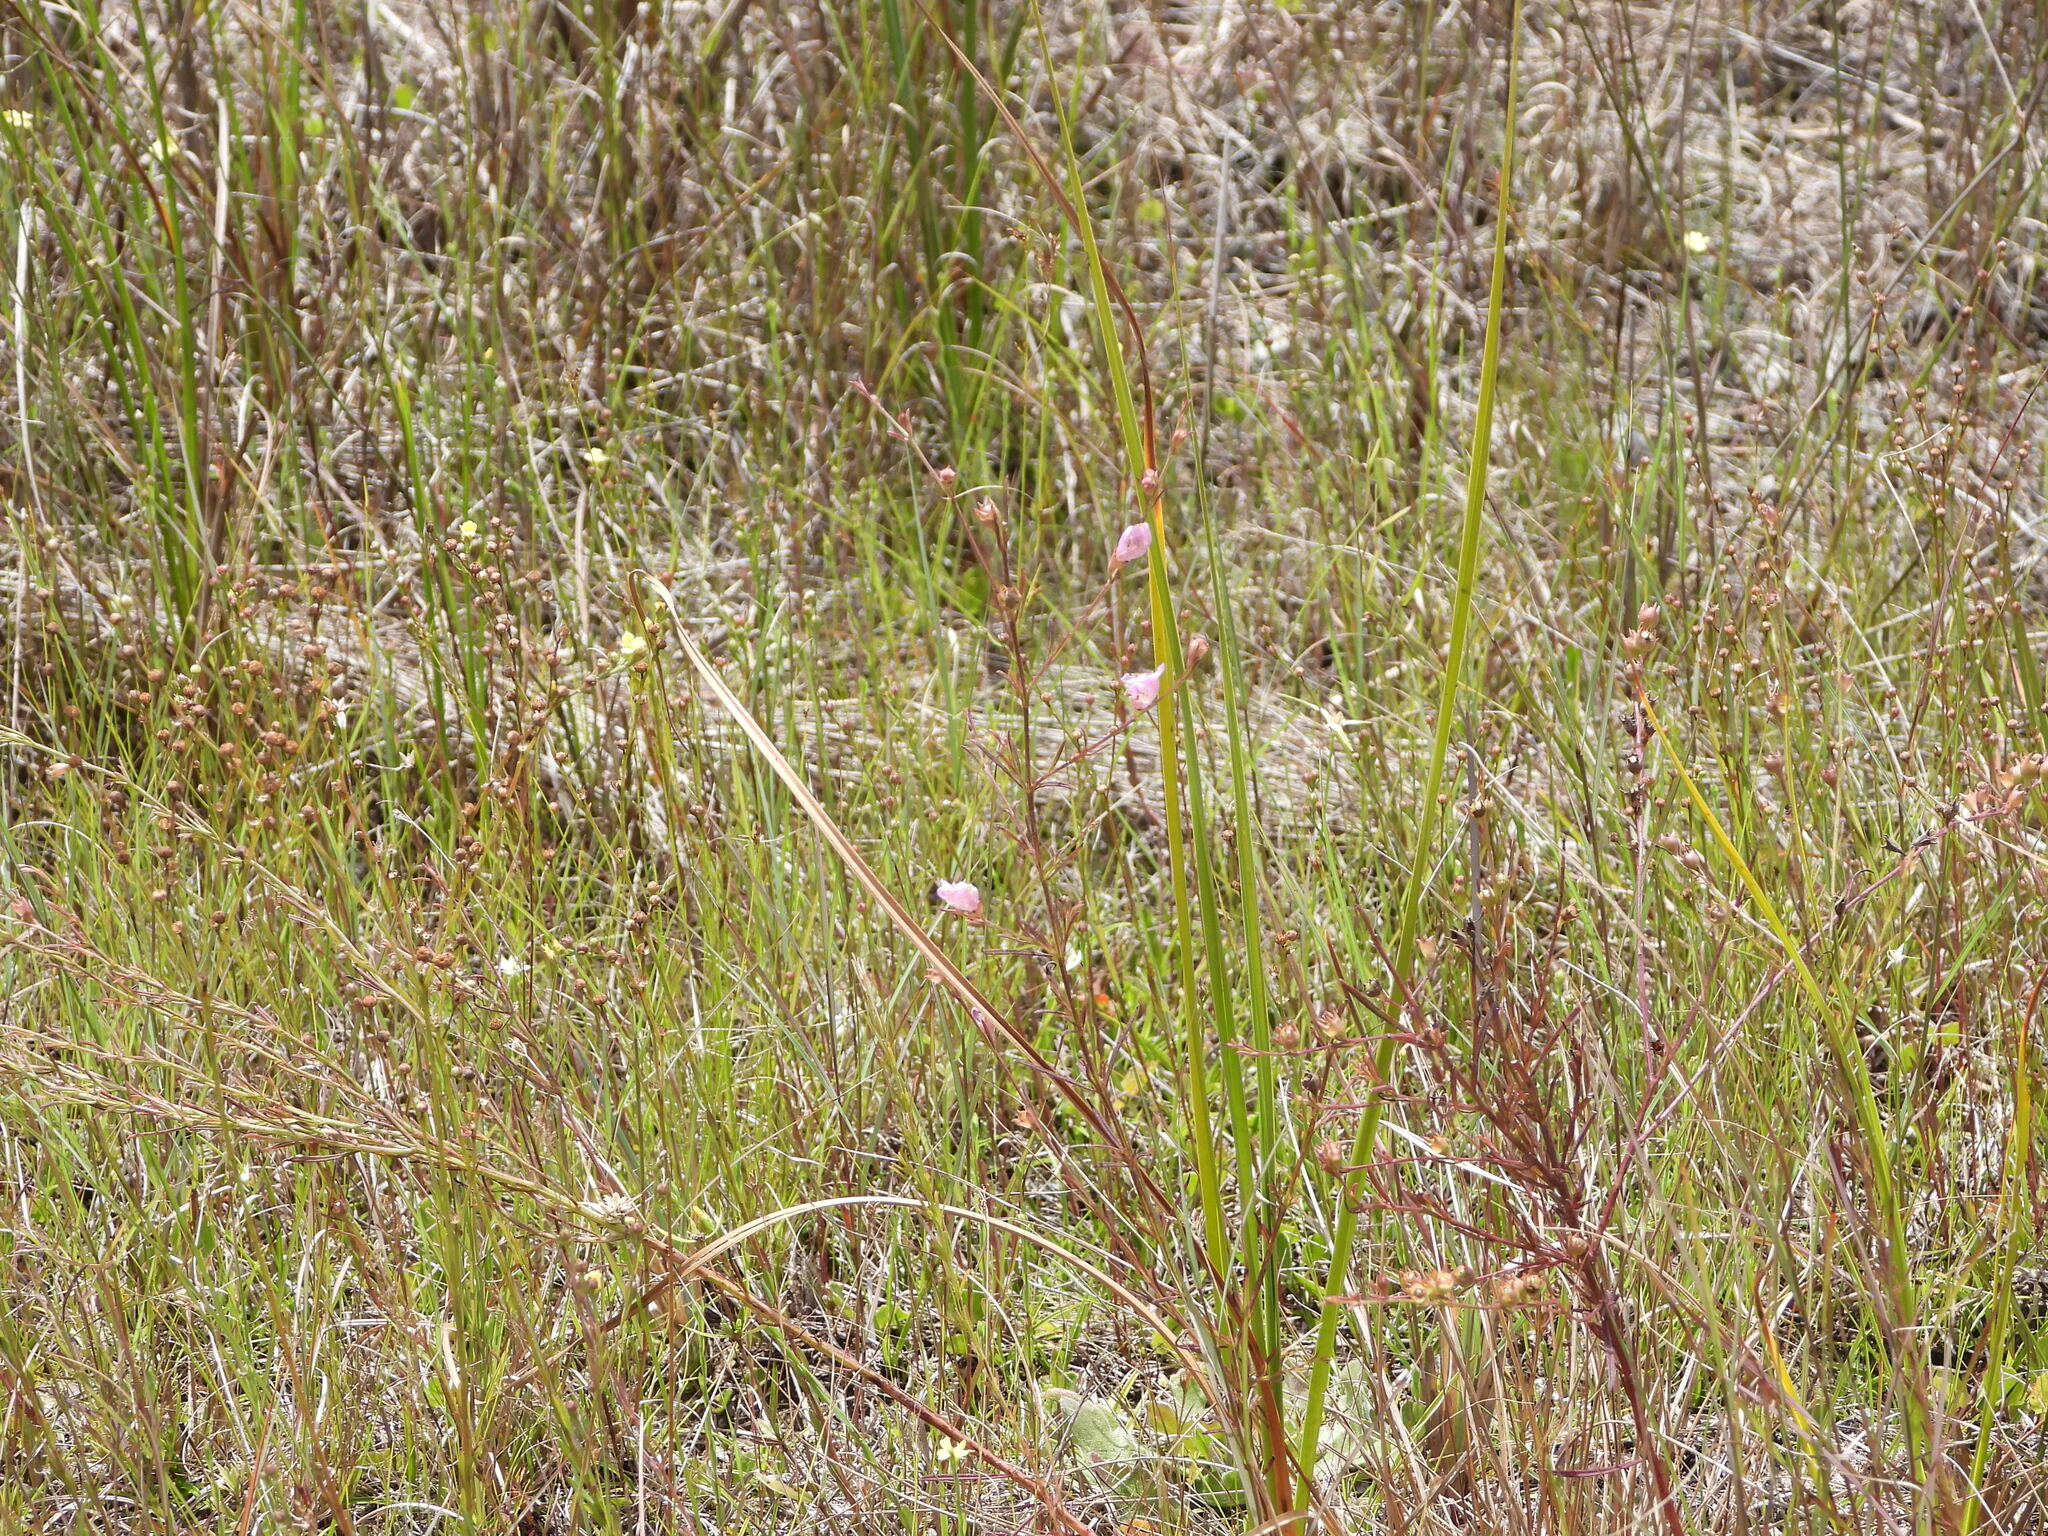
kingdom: Plantae
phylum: Tracheophyta
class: Magnoliopsida
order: Lamiales
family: Orobanchaceae
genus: Agalinis
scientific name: Agalinis maritima
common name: Saltmarsh agalinis
